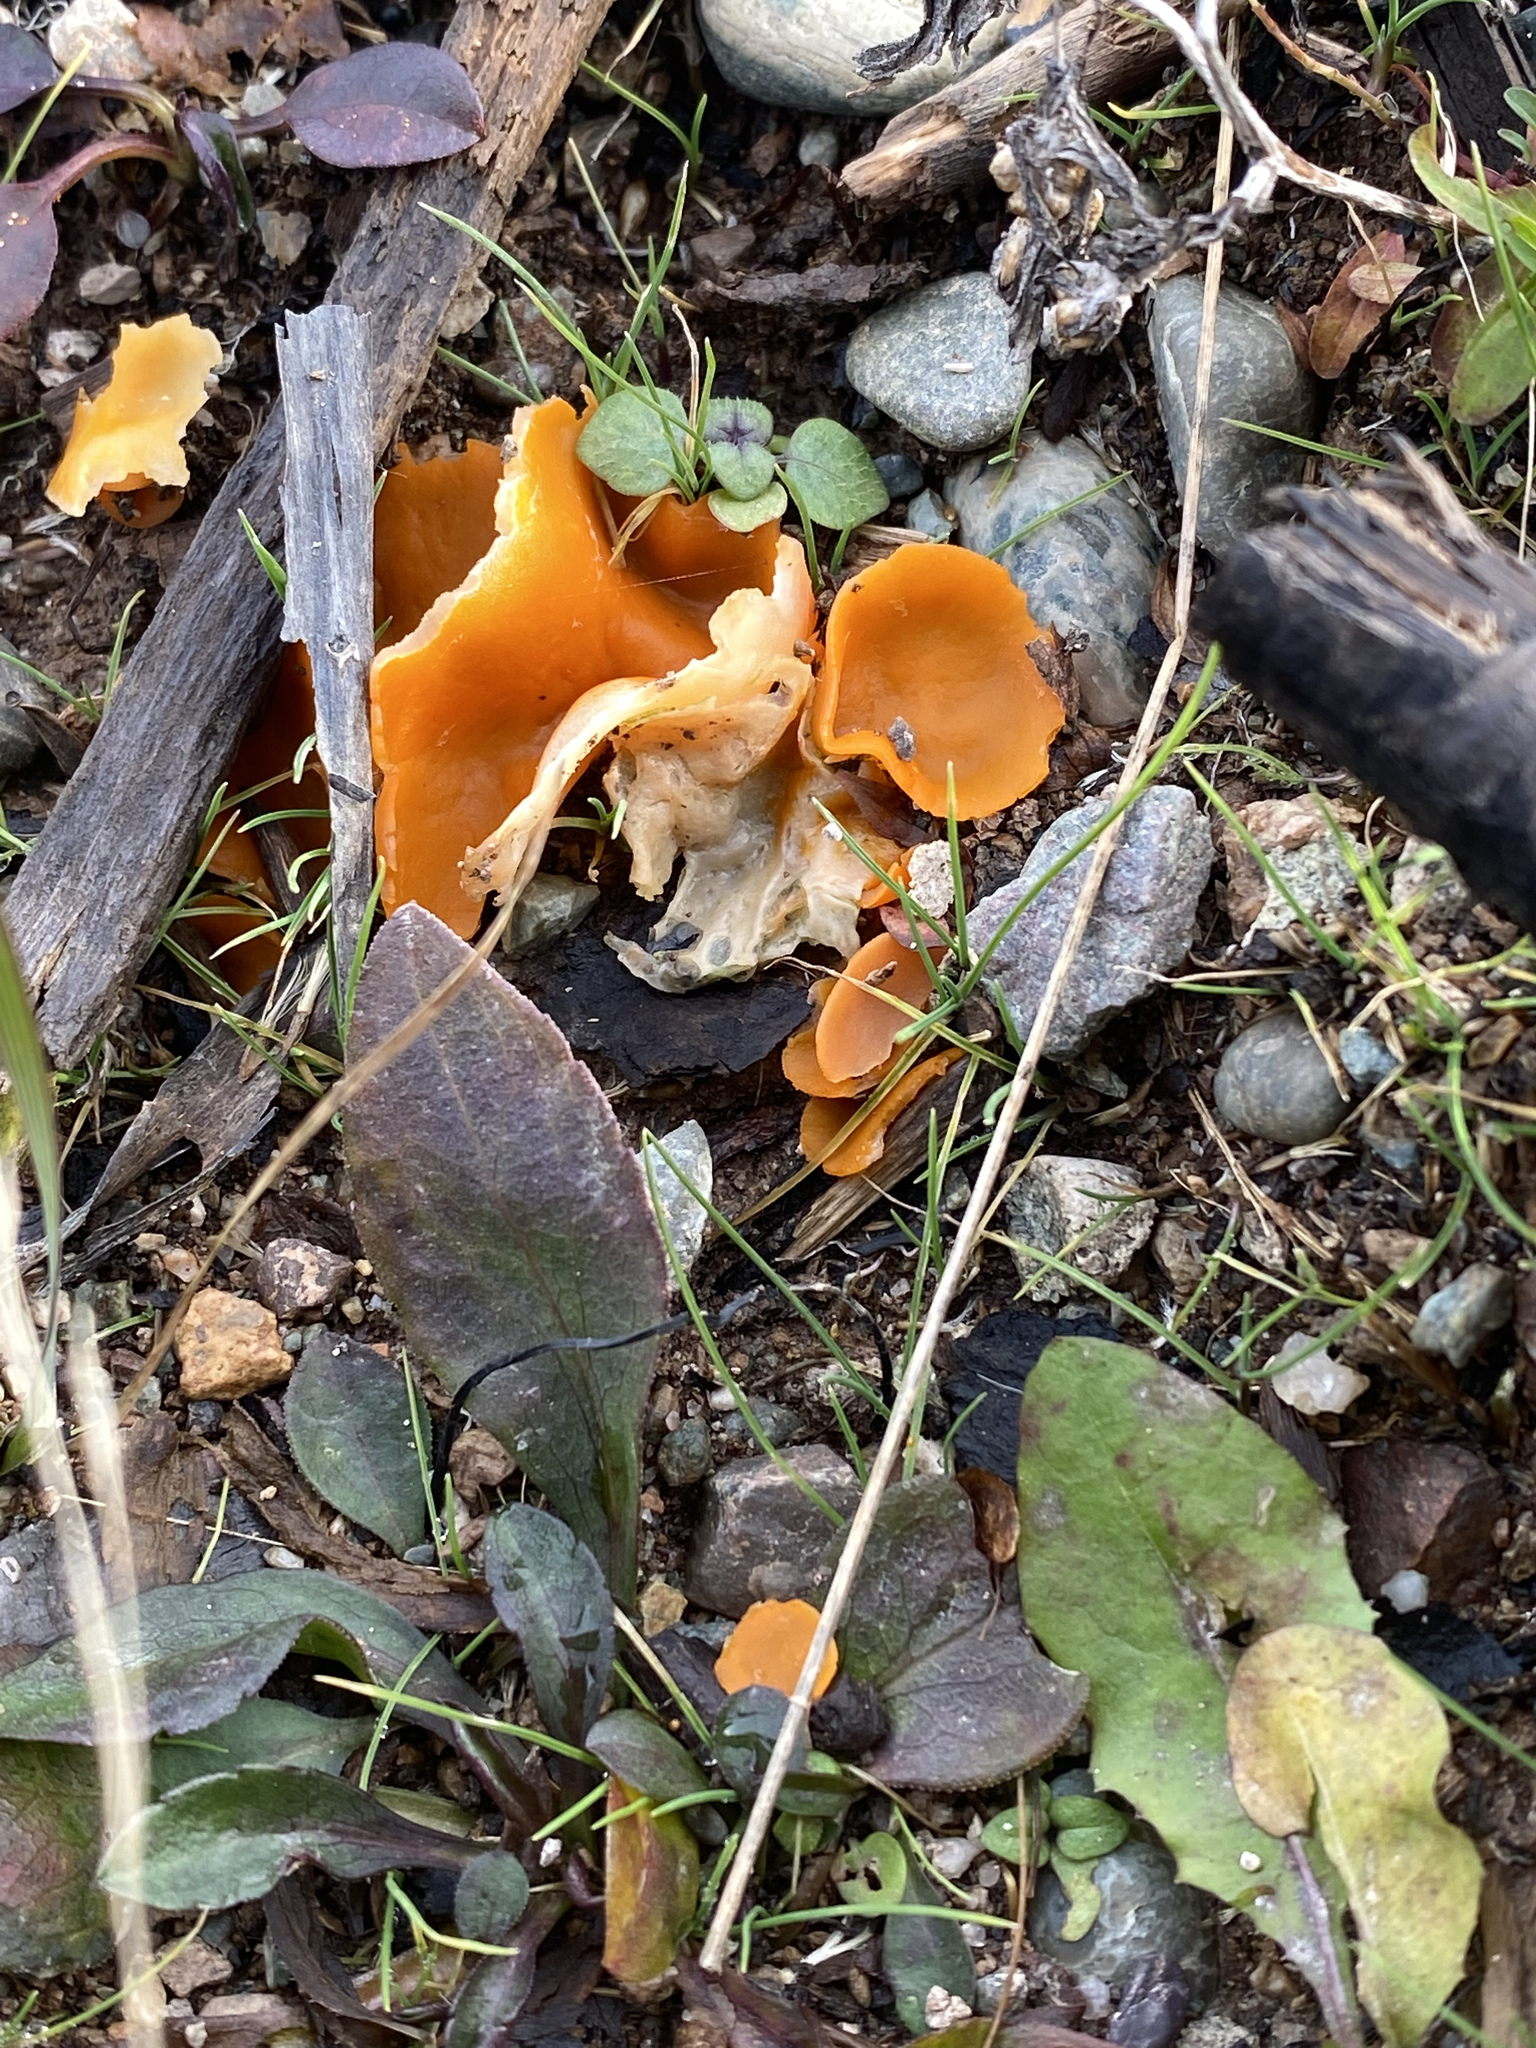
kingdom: Fungi
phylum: Ascomycota
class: Pezizomycetes
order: Pezizales
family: Pyronemataceae
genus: Aleuria
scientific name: Aleuria aurantia
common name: Orange peel fungus
